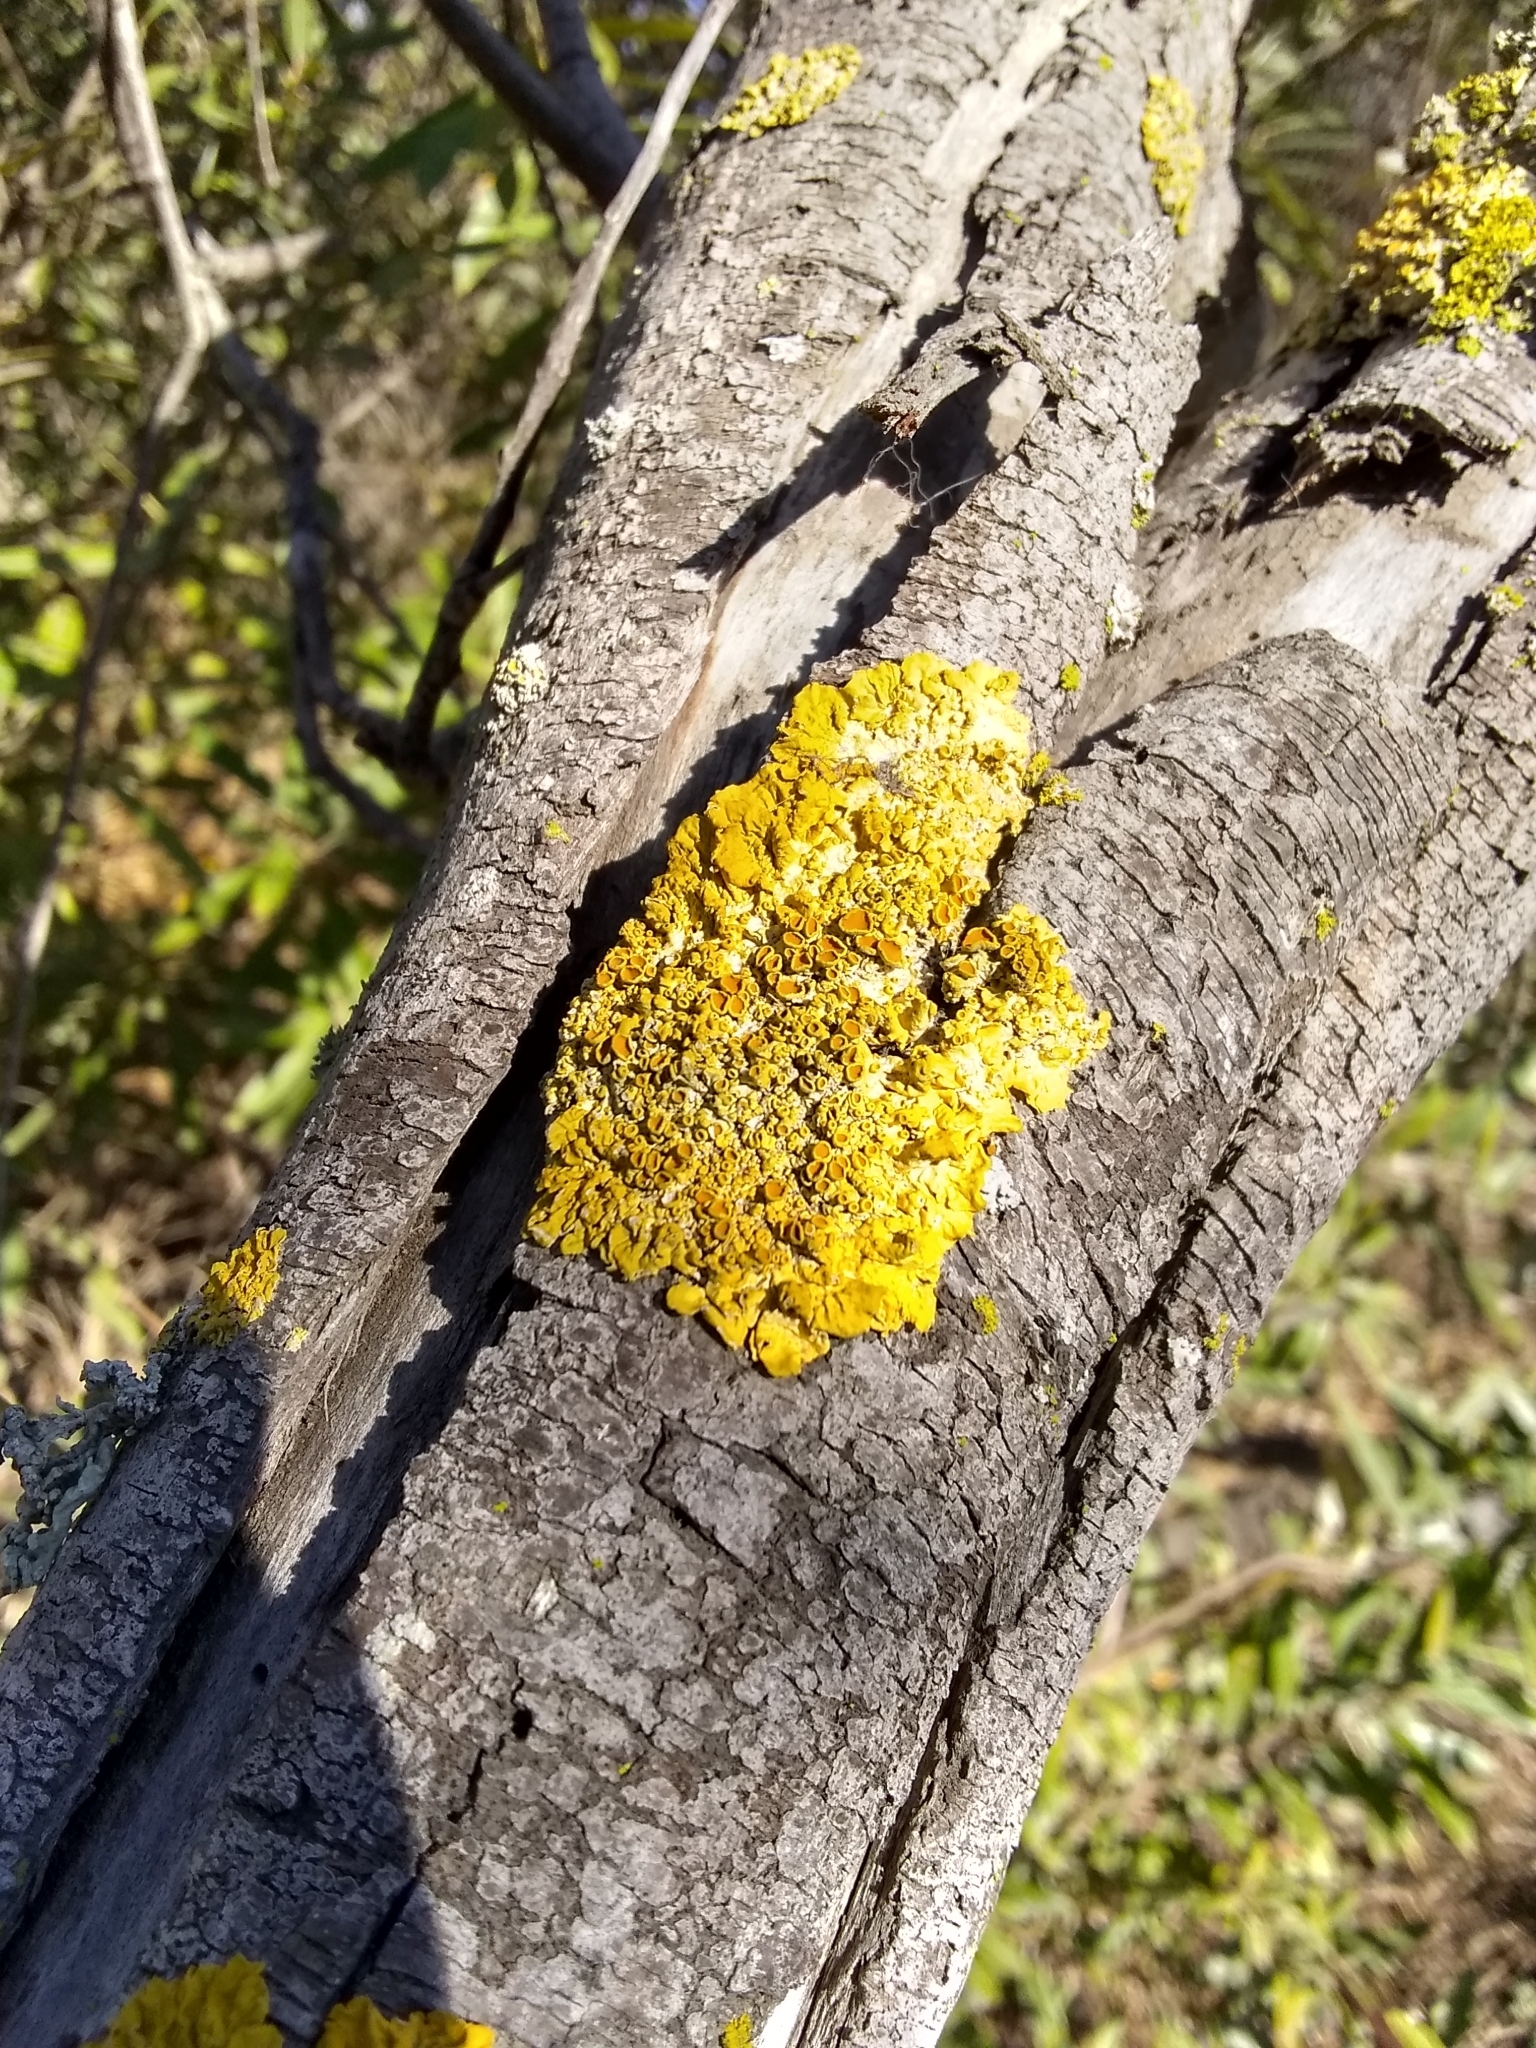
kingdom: Fungi
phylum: Ascomycota
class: Lecanoromycetes
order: Teloschistales
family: Teloschistaceae
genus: Xanthoria
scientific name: Xanthoria parietina
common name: Common orange lichen
